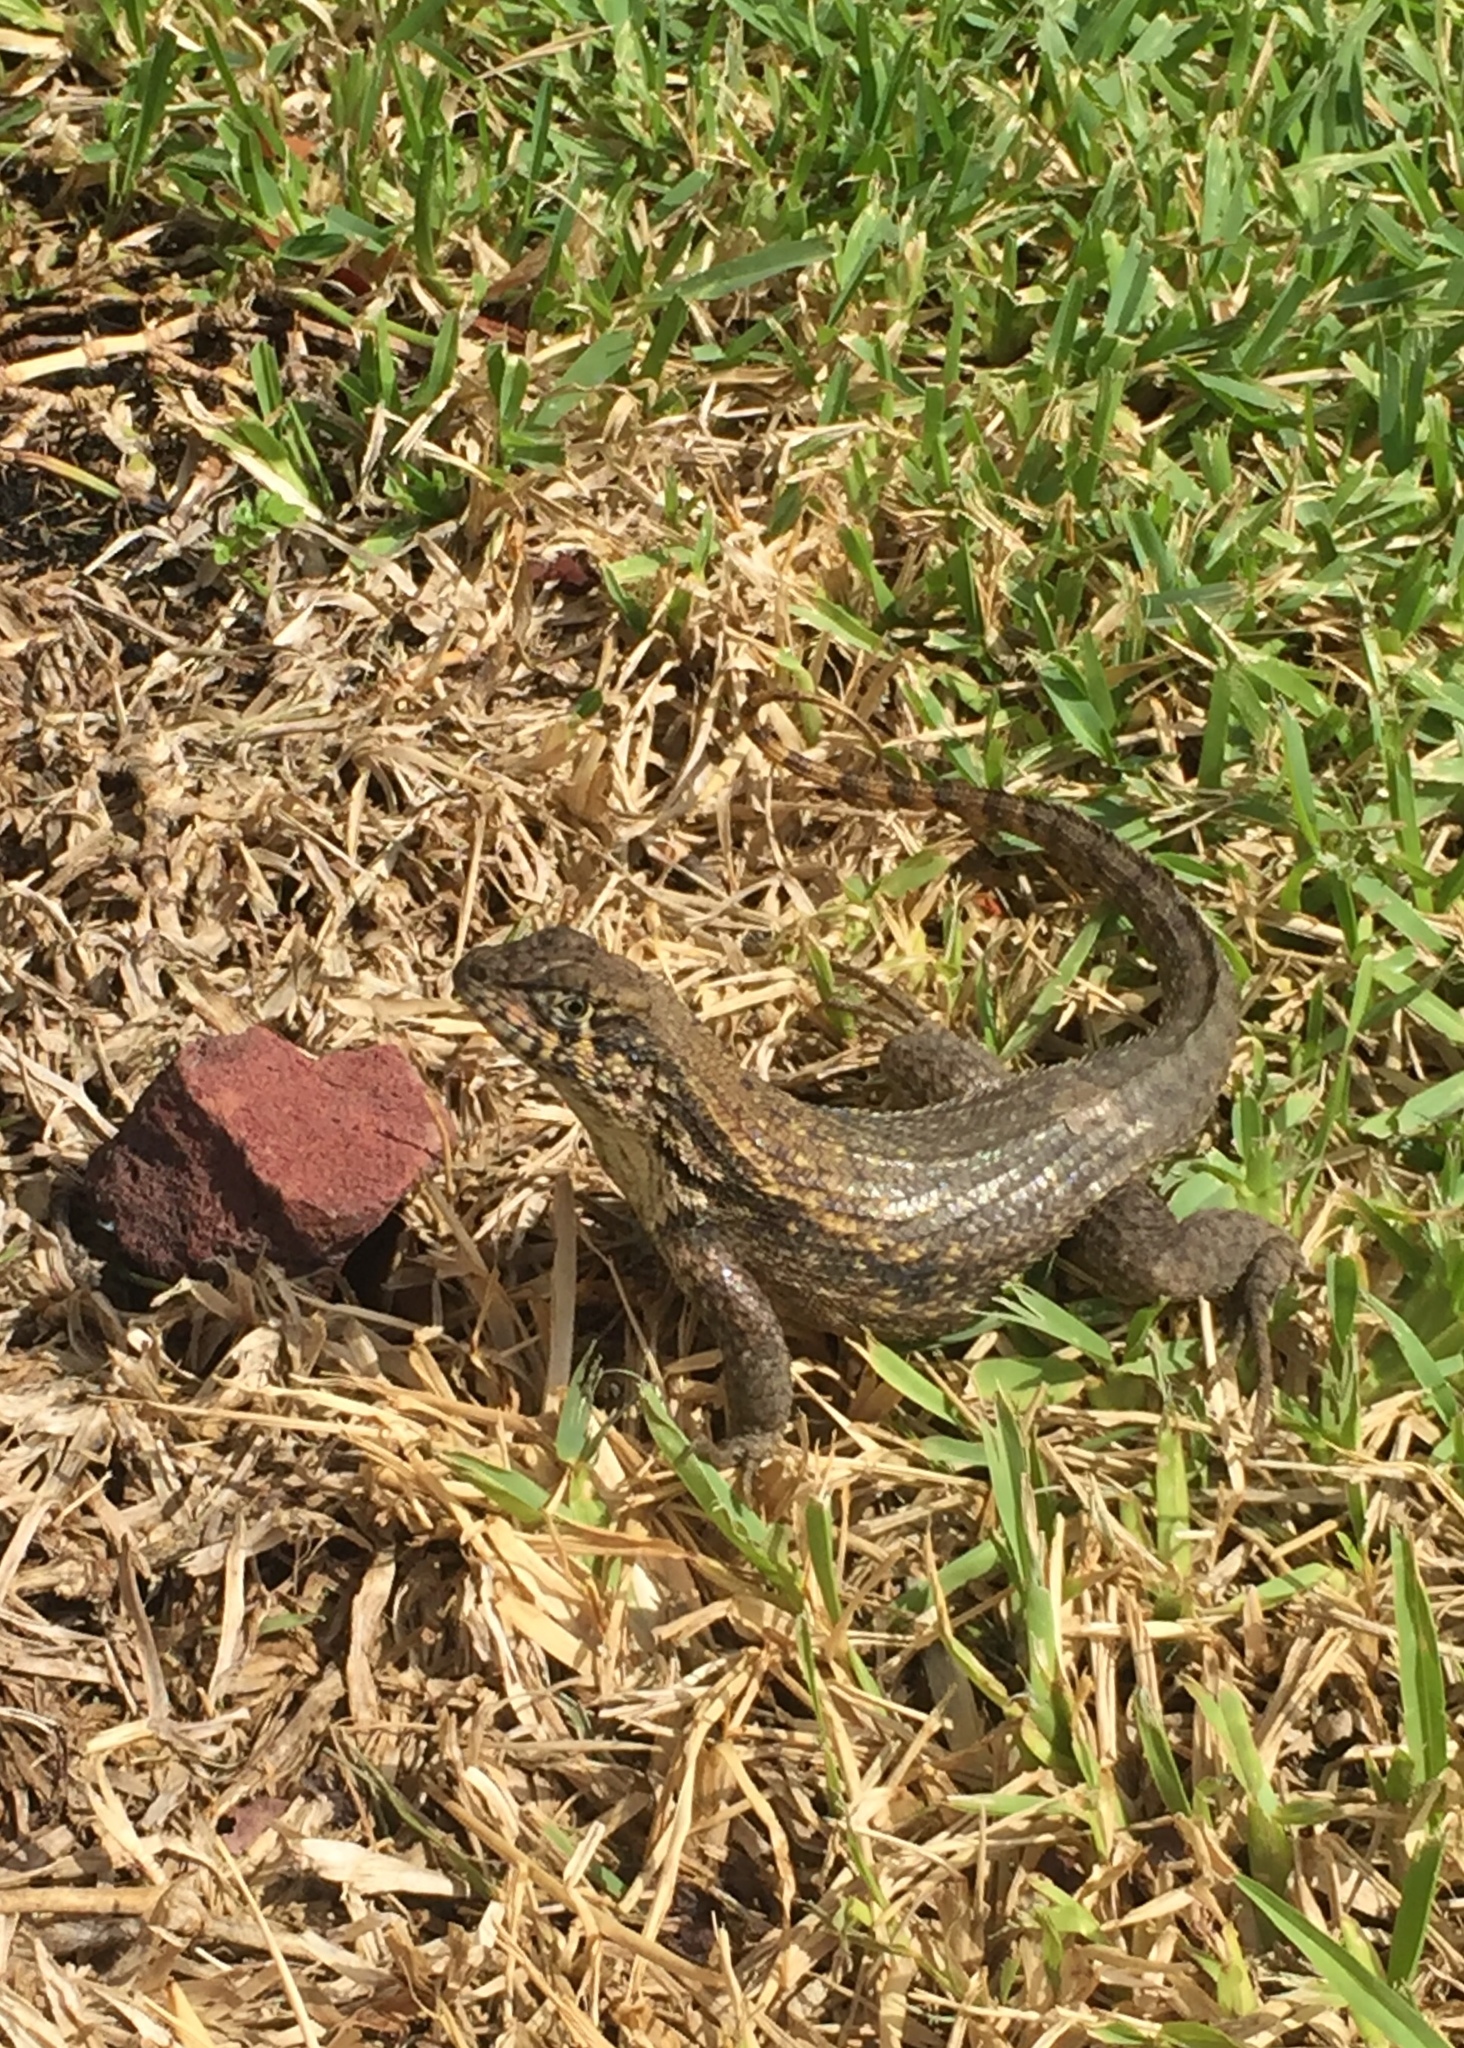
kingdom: Animalia
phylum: Chordata
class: Squamata
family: Leiocephalidae
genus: Leiocephalus
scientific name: Leiocephalus carinatus
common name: Northern curly-tailed lizard
